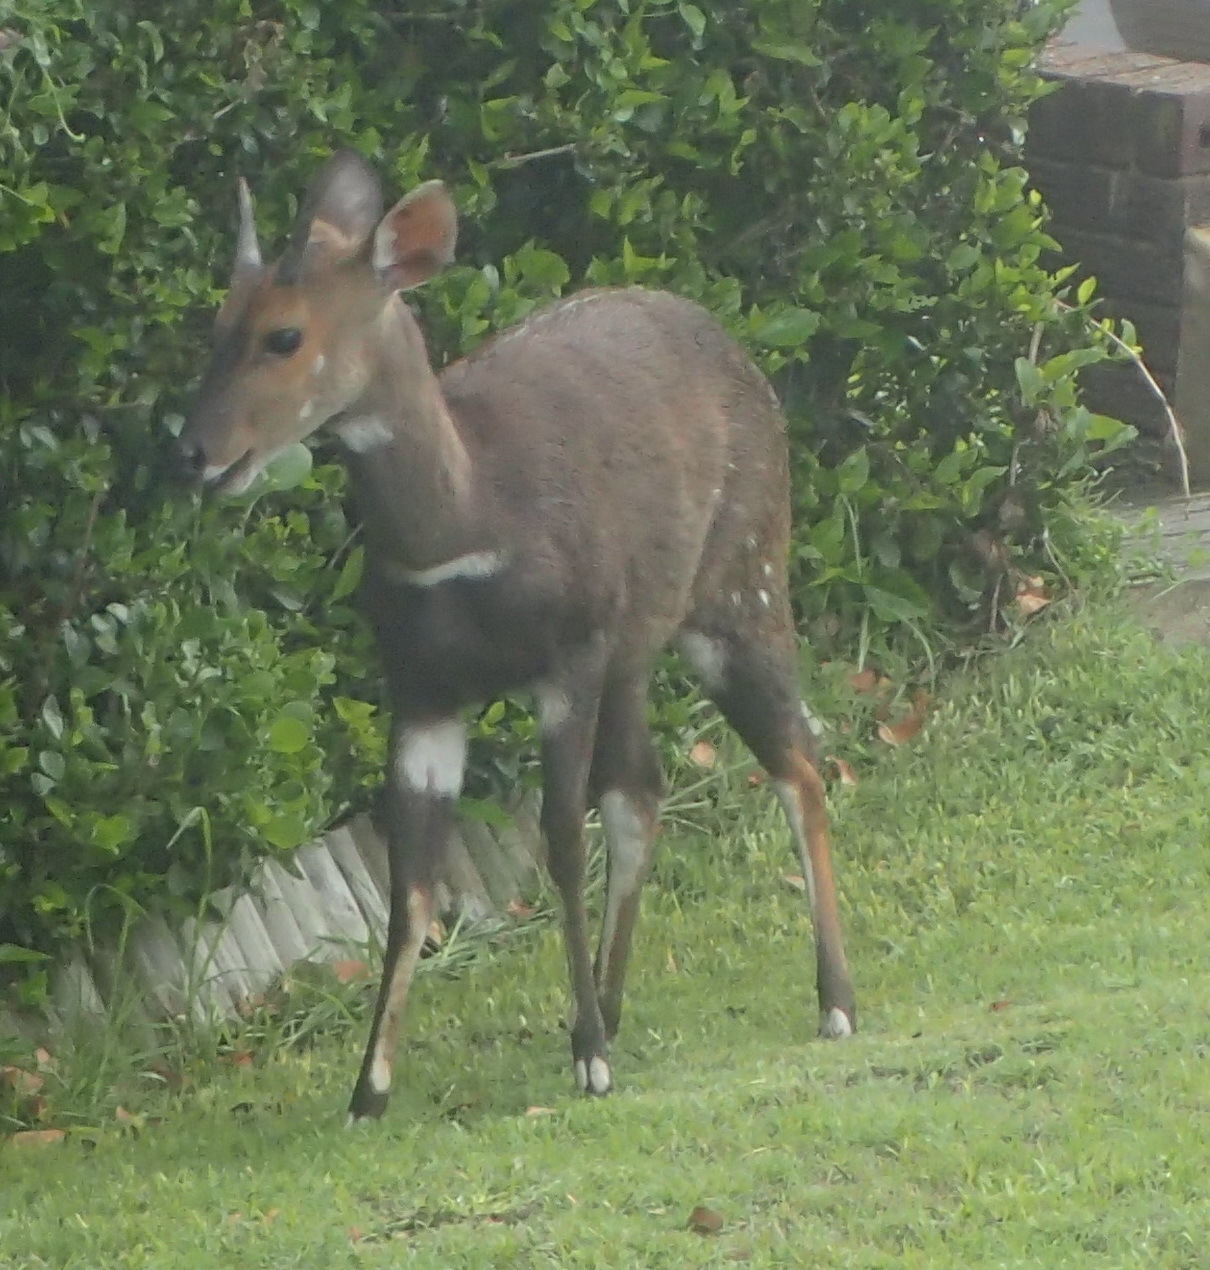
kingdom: Animalia
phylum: Chordata
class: Mammalia
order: Artiodactyla
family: Bovidae
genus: Tragelaphus
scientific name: Tragelaphus scriptus
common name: Bushbuck
